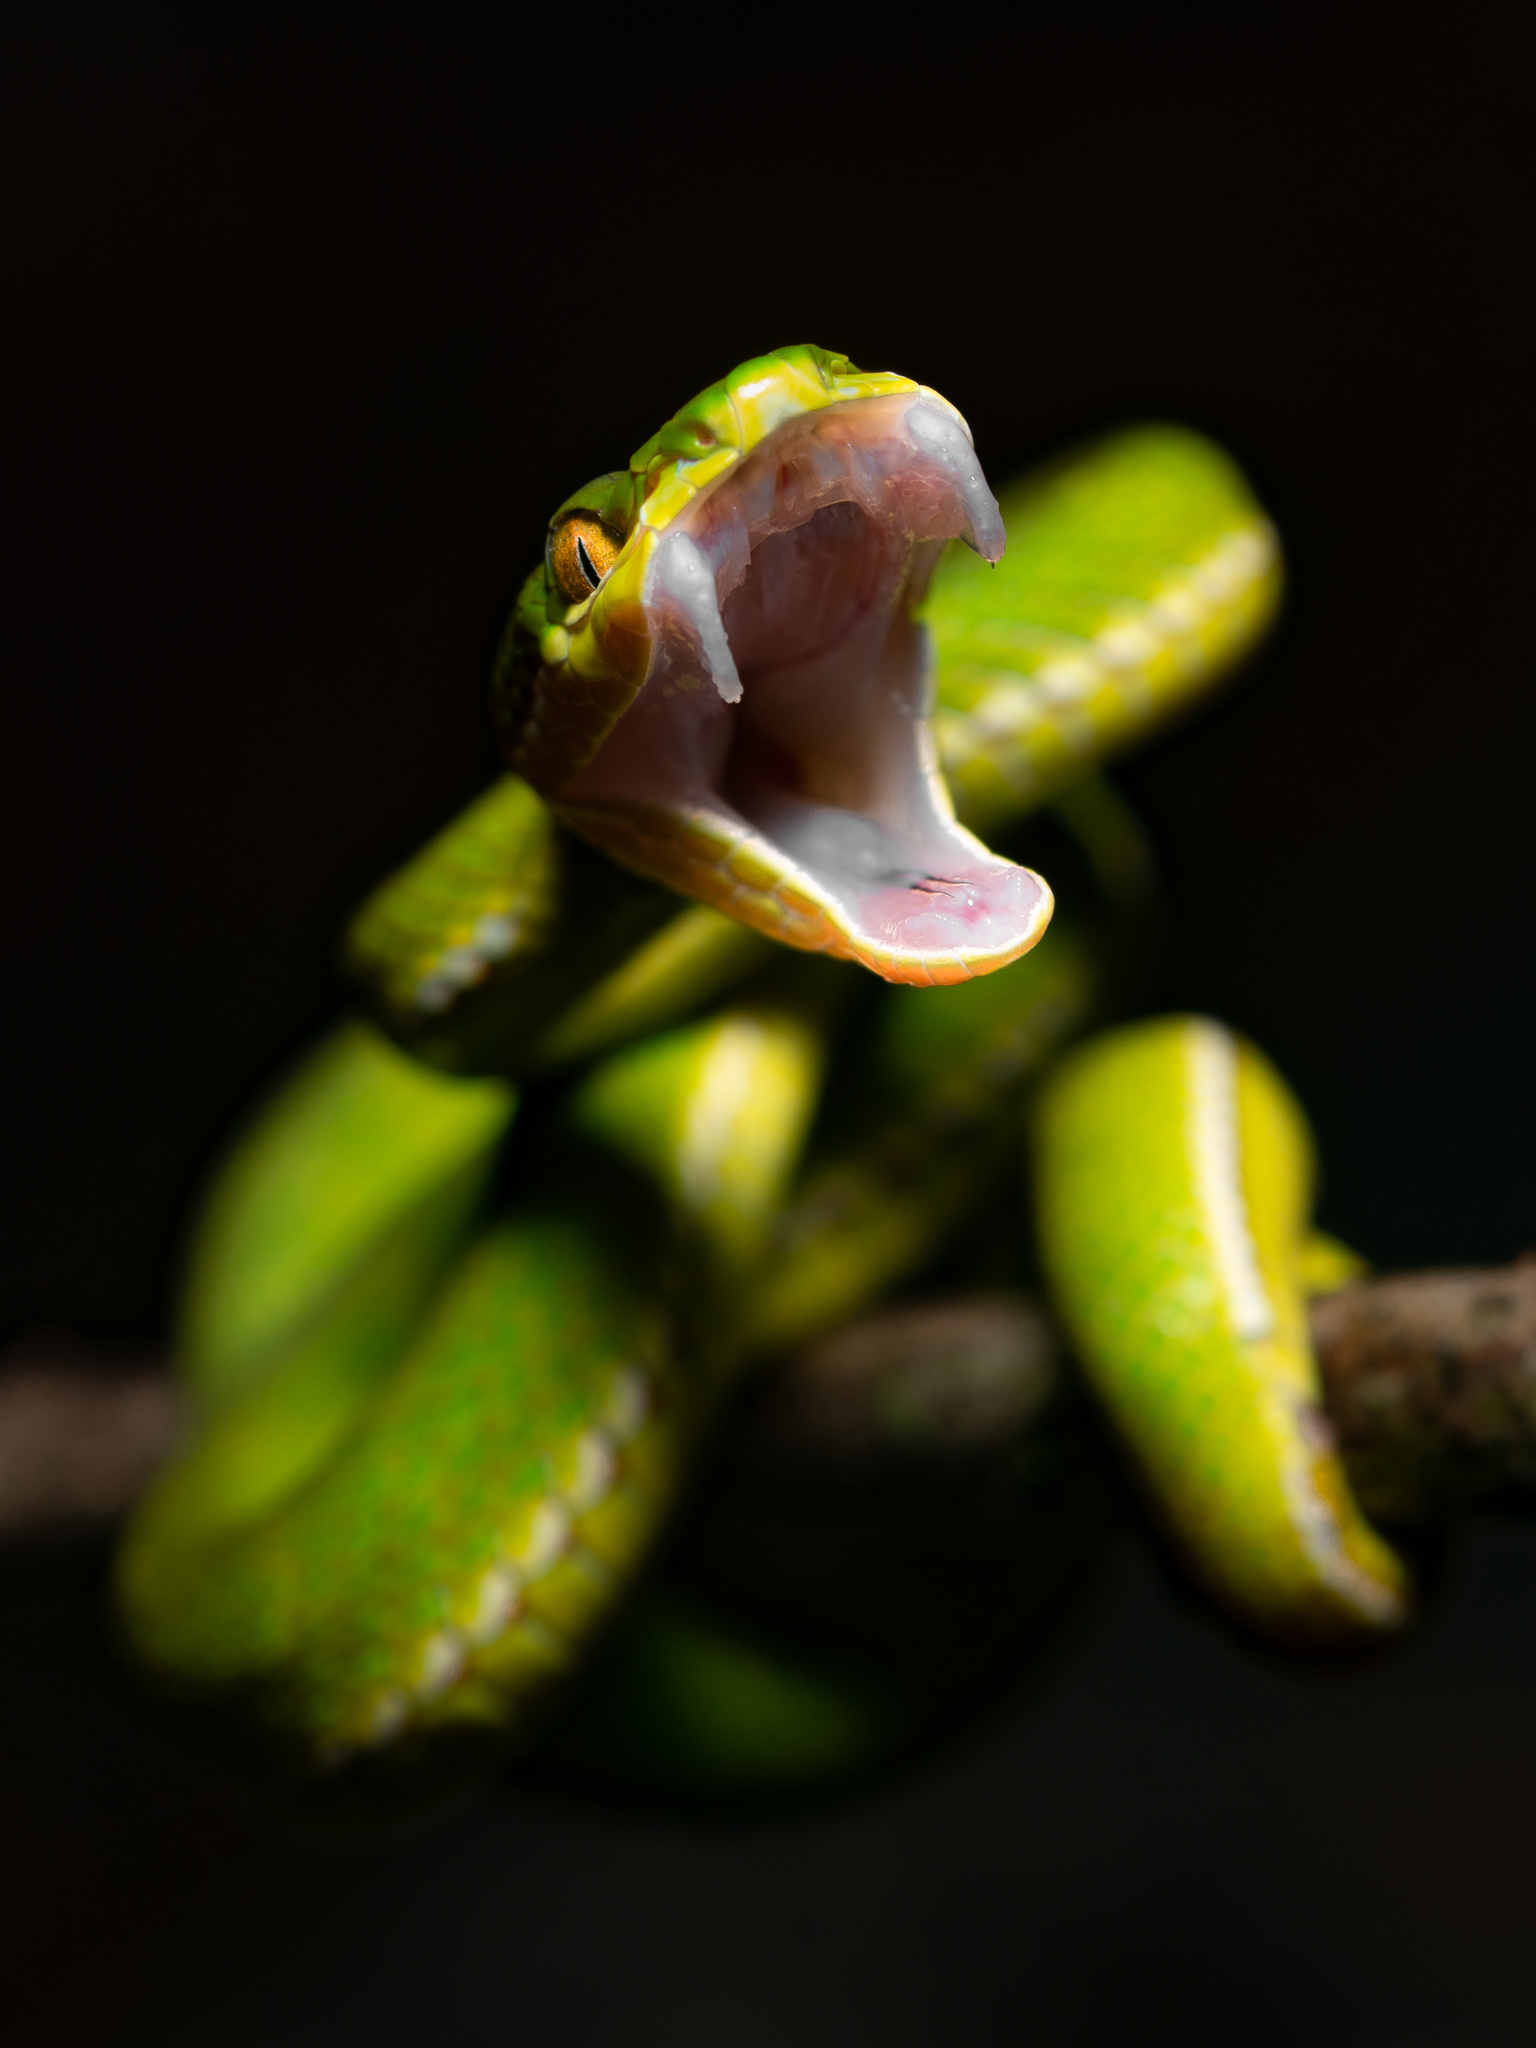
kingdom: Animalia
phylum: Chordata
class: Squamata
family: Viperidae
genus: Trimeresurus
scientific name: Trimeresurus albolabris
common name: White-lipped pitviper
